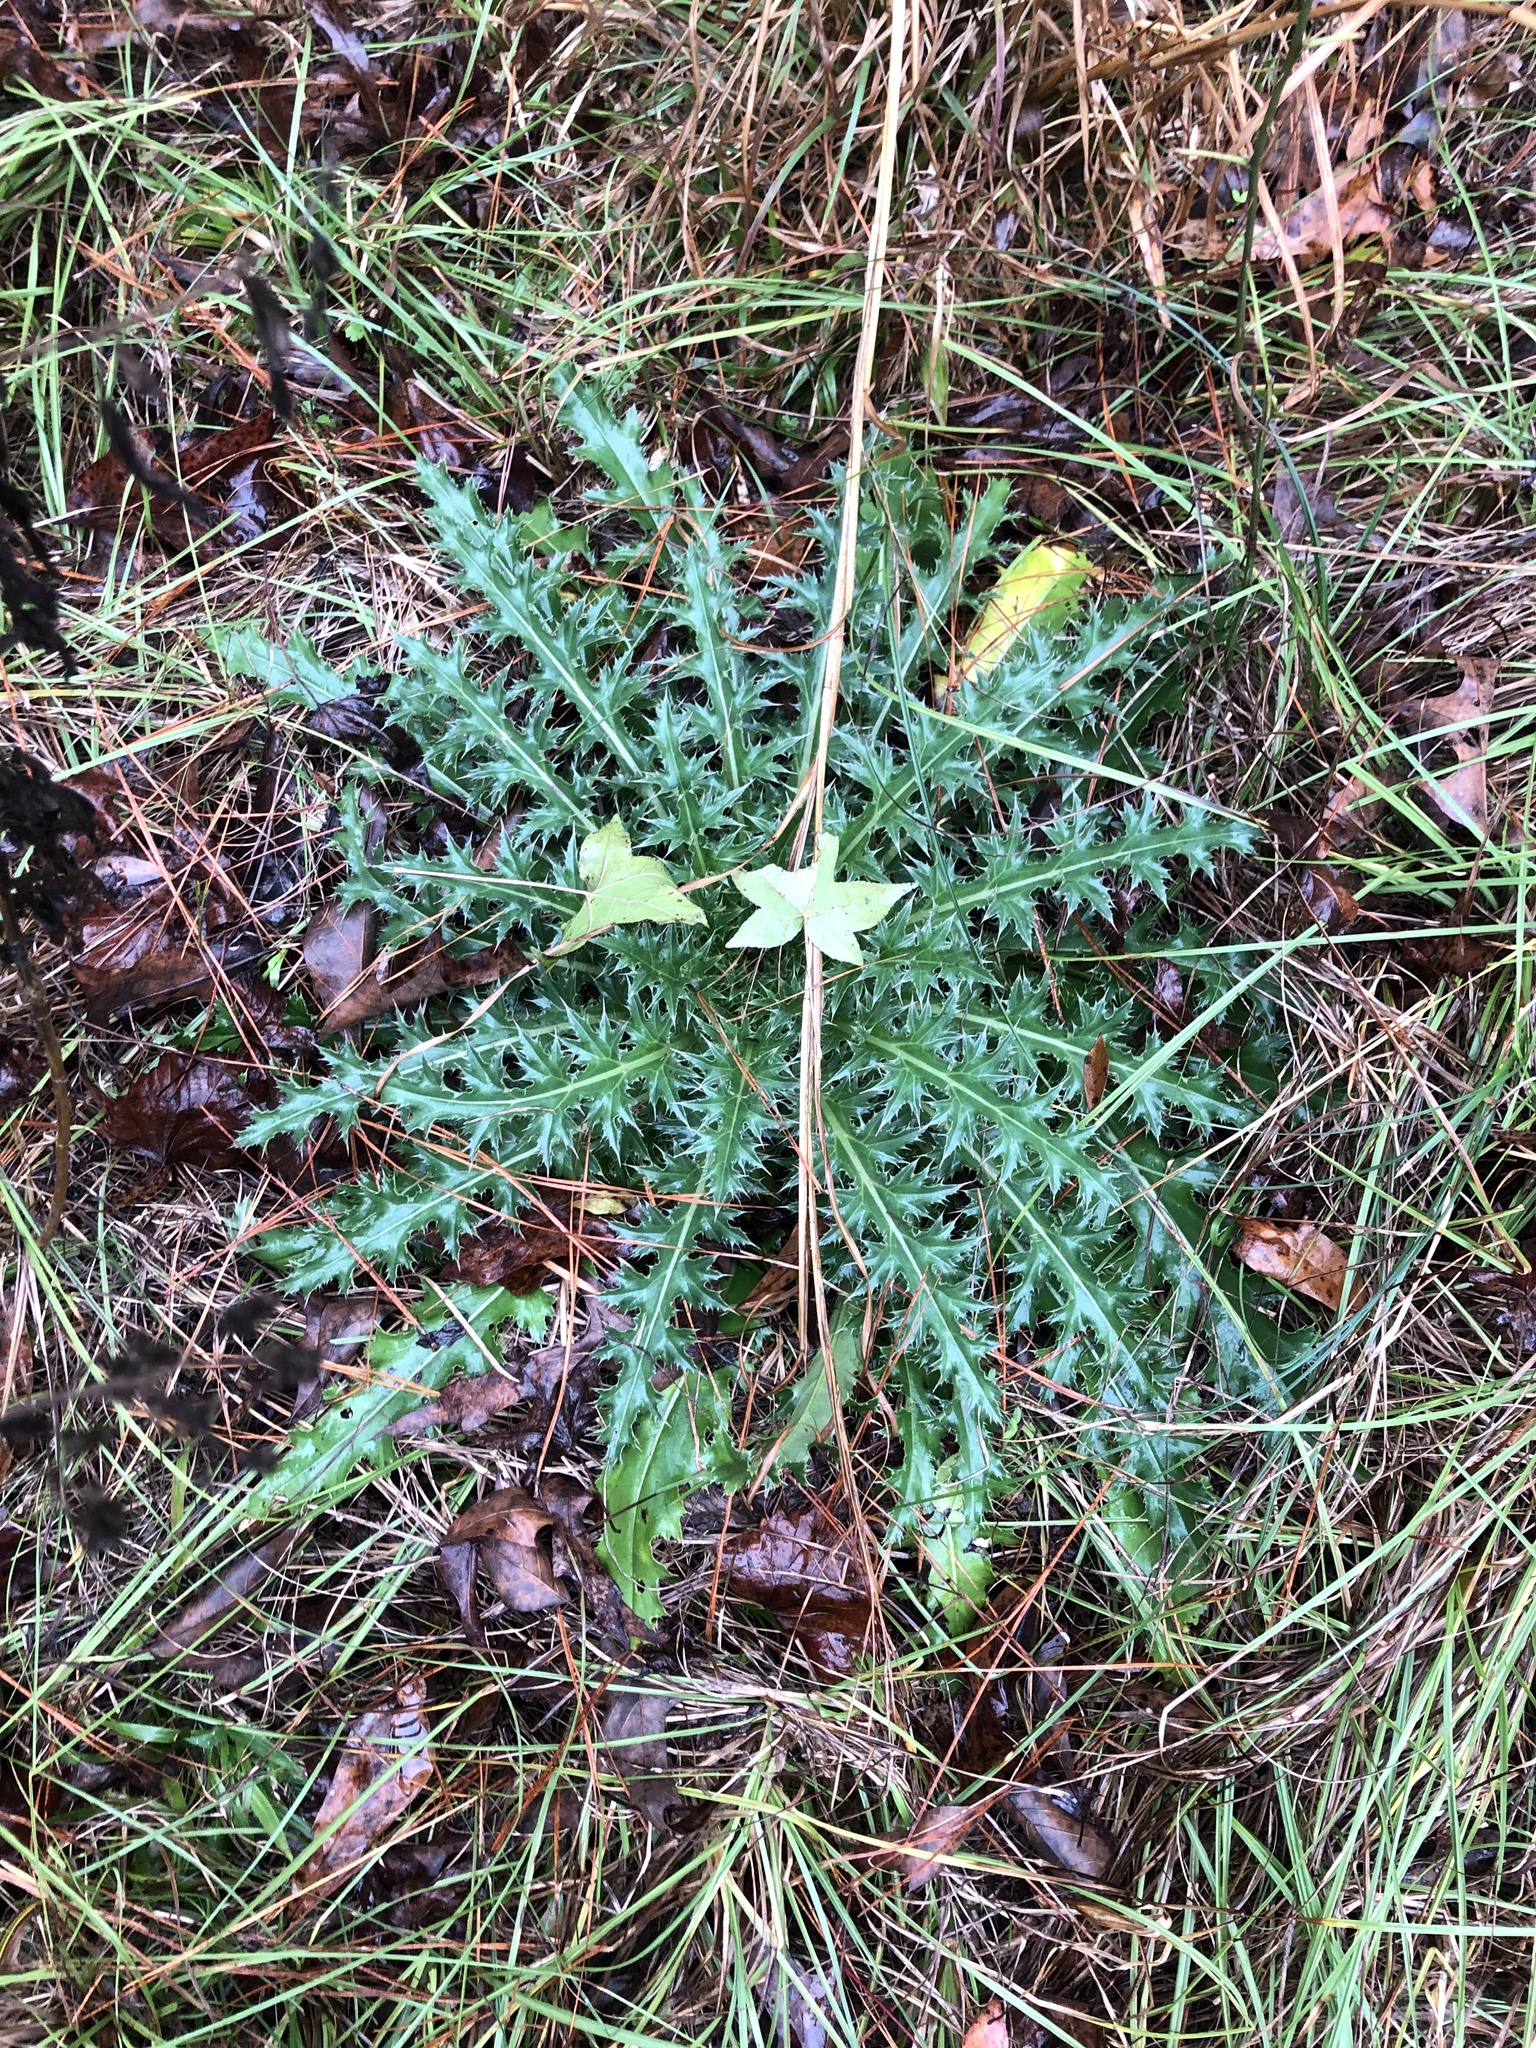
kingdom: Plantae
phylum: Tracheophyta
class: Magnoliopsida
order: Asterales
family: Asteraceae
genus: Cirsium
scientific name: Cirsium horridulum
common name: Bristly thistle
